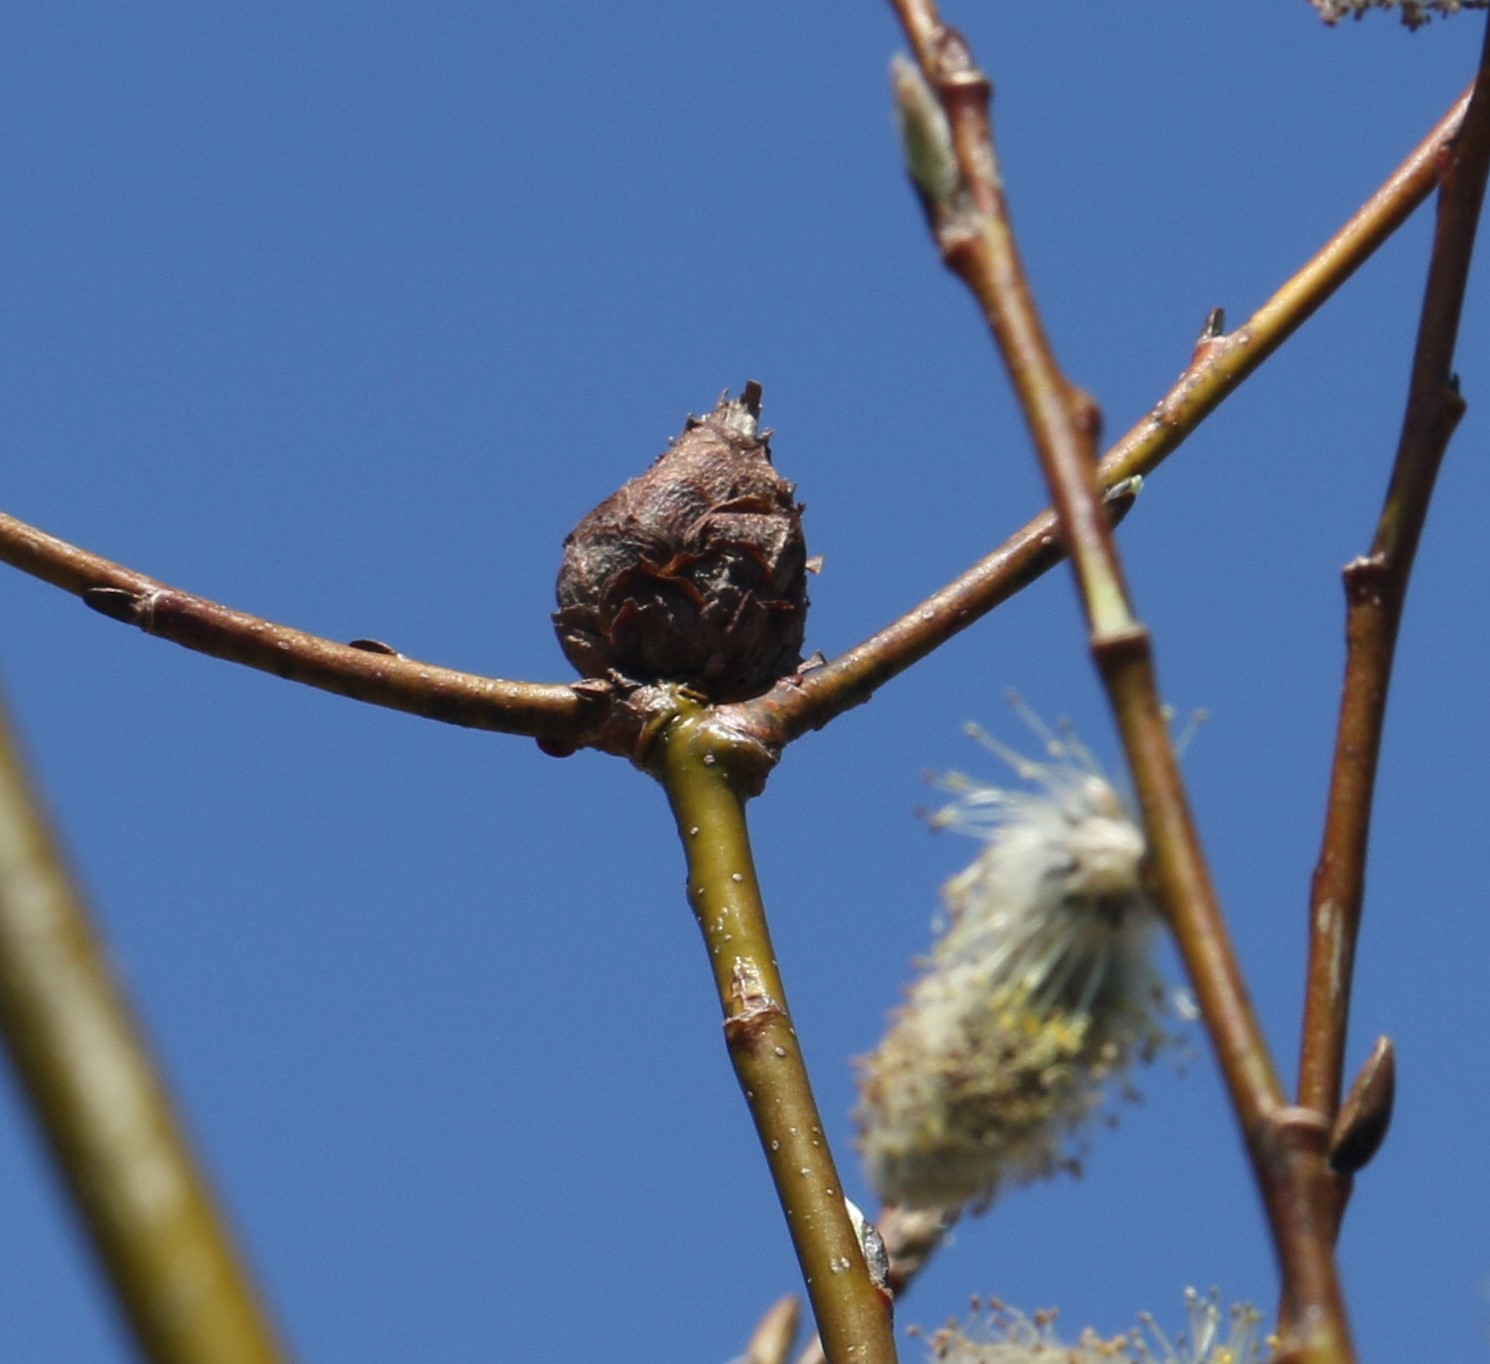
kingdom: Animalia
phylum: Arthropoda
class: Insecta
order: Diptera
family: Cecidomyiidae
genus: Rabdophaga
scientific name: Rabdophaga strobiloides
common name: Willow pinecone gall midge
